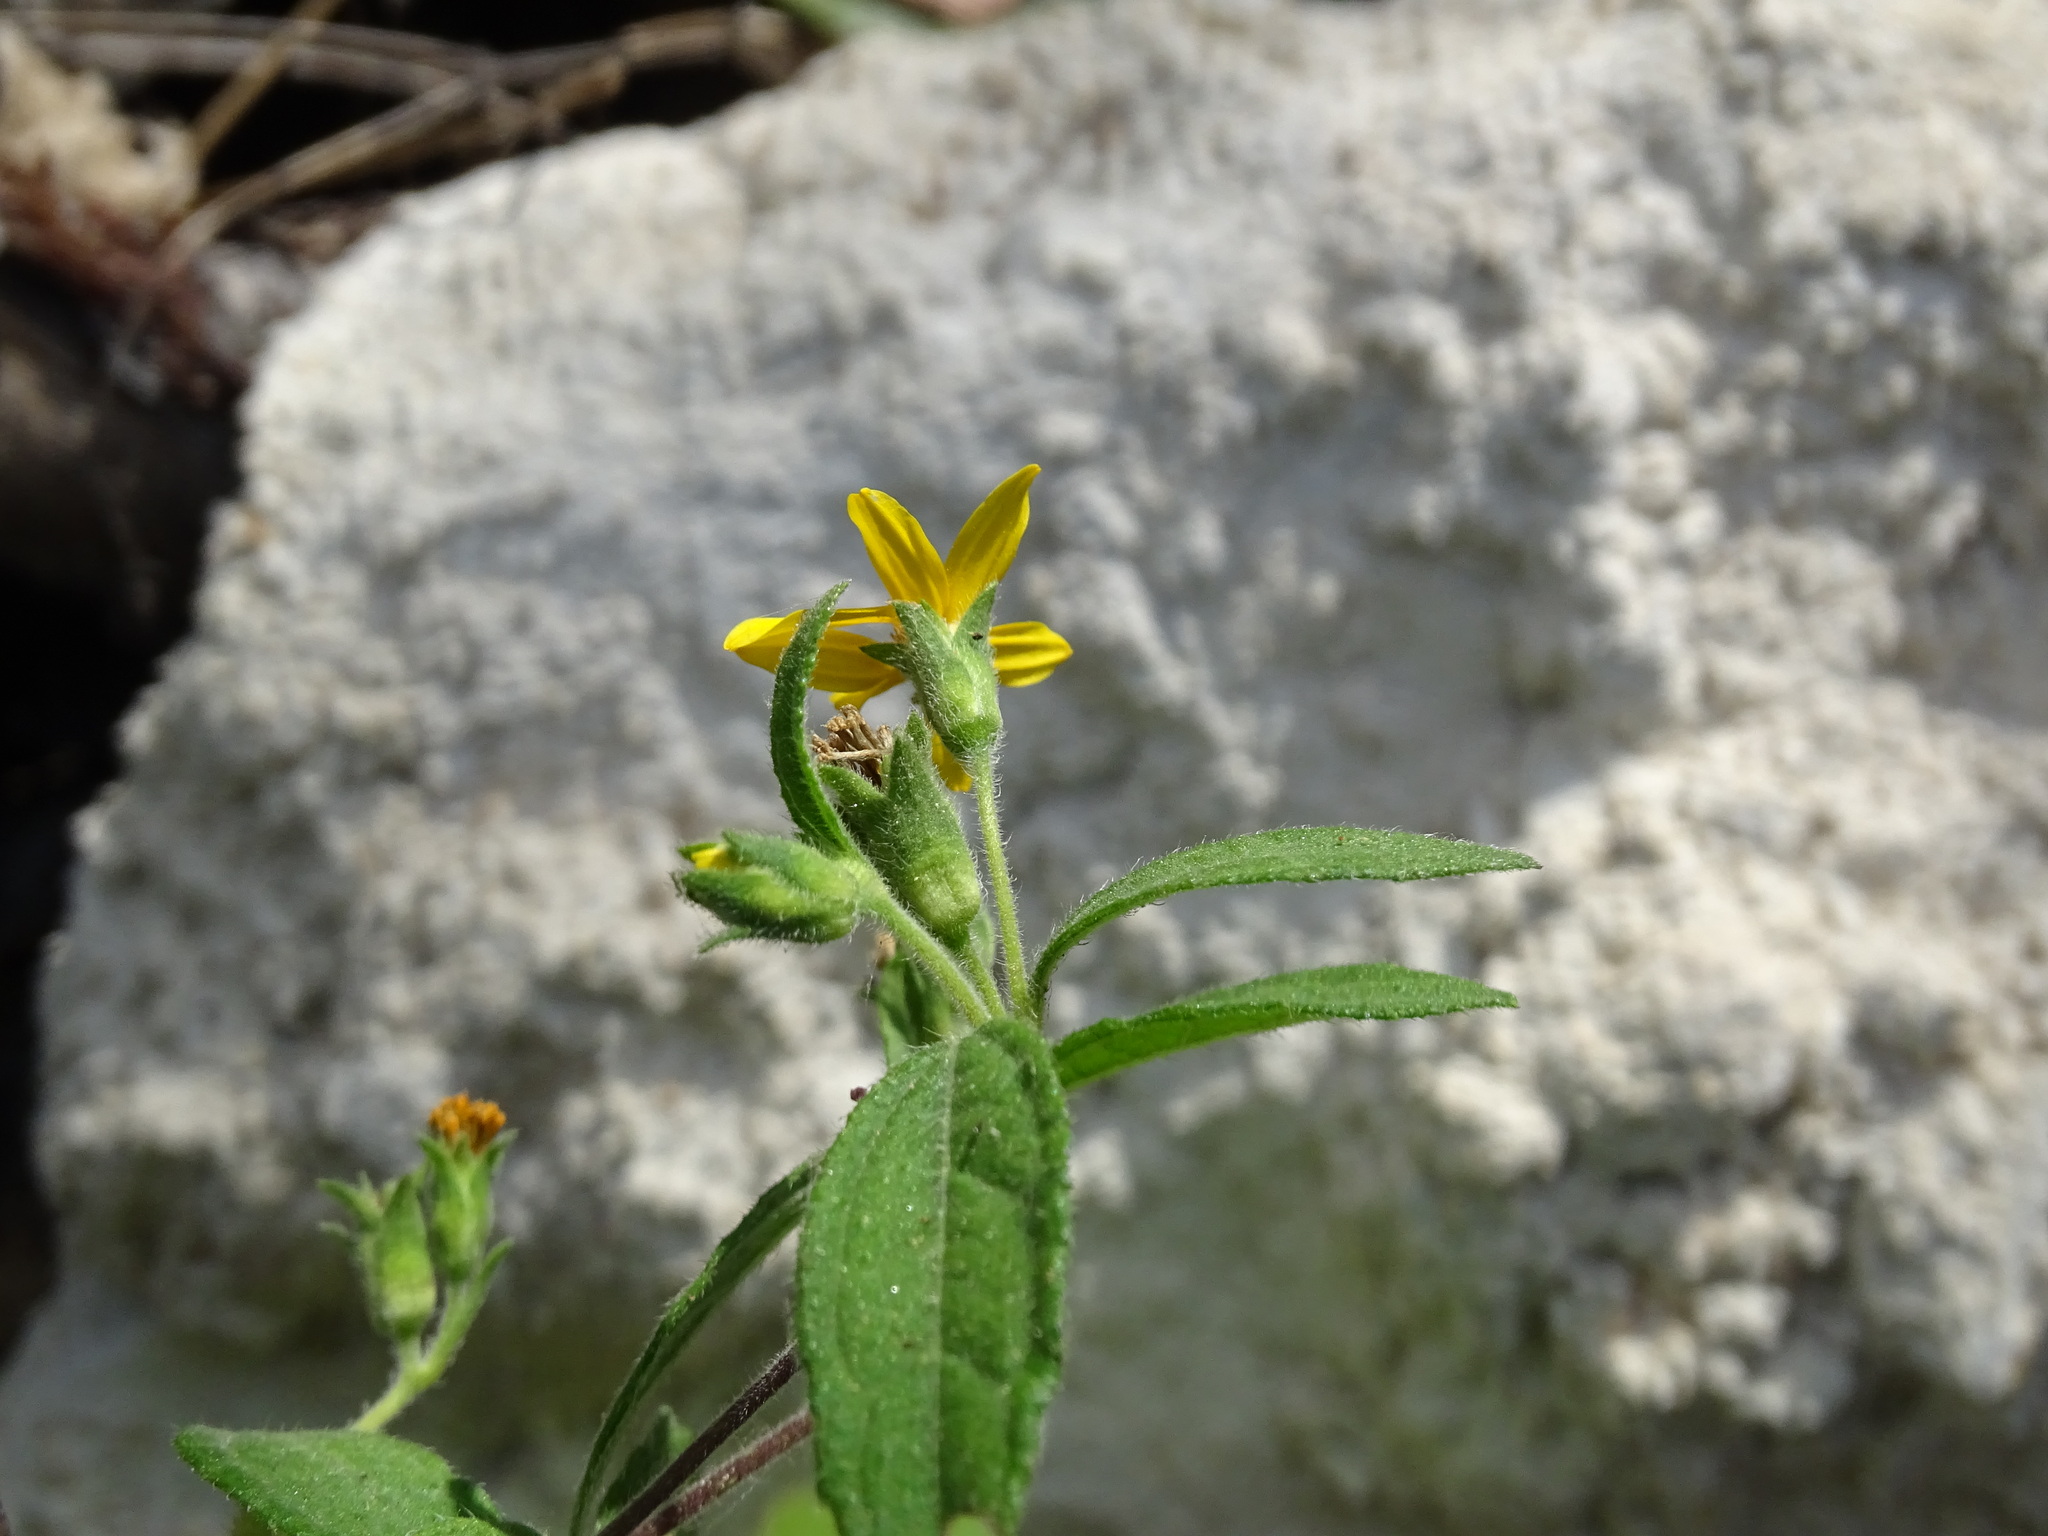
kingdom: Plantae
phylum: Tracheophyta
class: Magnoliopsida
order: Asterales
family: Asteraceae
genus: Wedelia
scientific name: Wedelia acapulcensis
